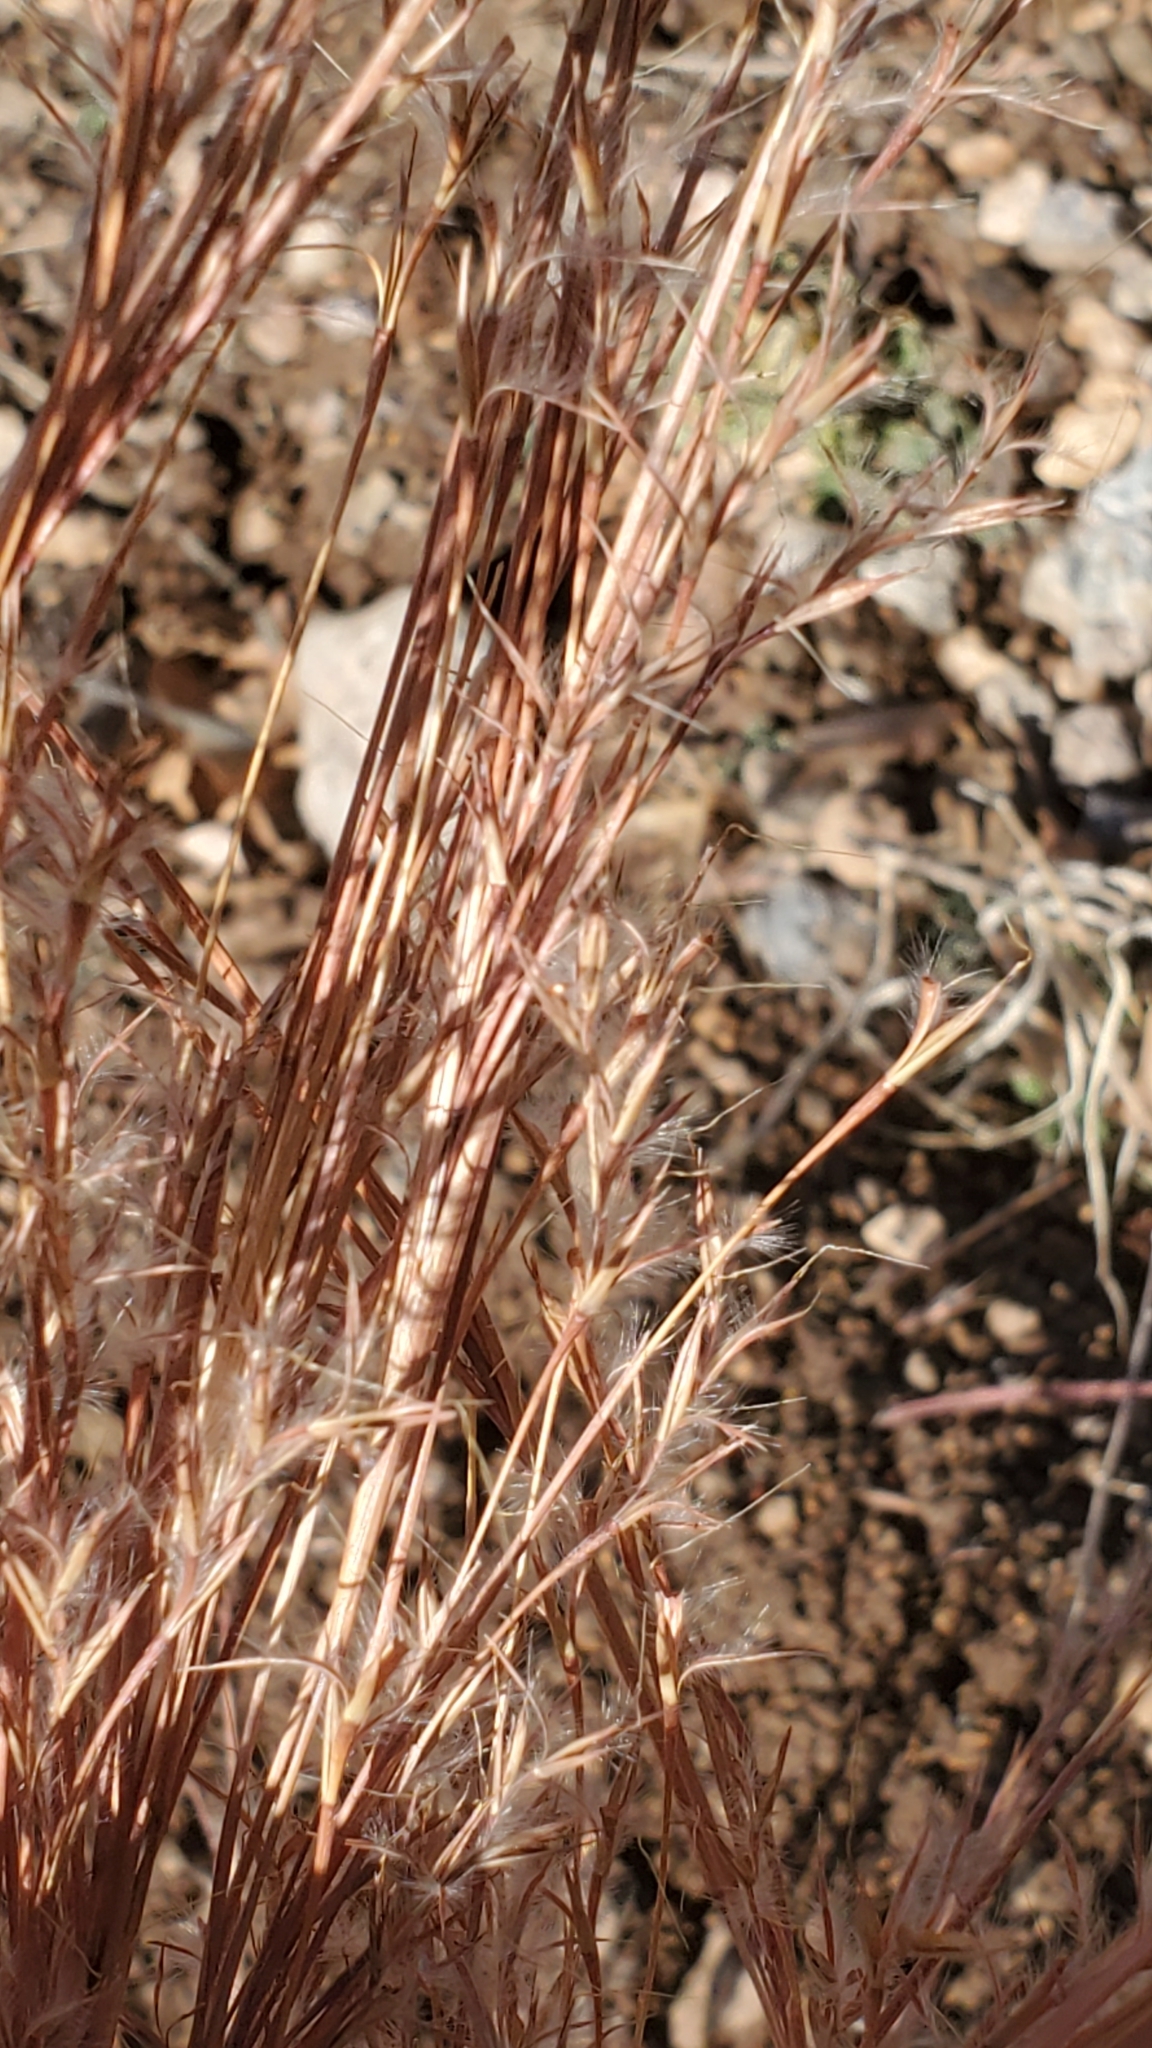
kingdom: Plantae
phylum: Tracheophyta
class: Liliopsida
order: Poales
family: Poaceae
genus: Schizachyrium
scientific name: Schizachyrium scoparium
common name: Little bluestem
